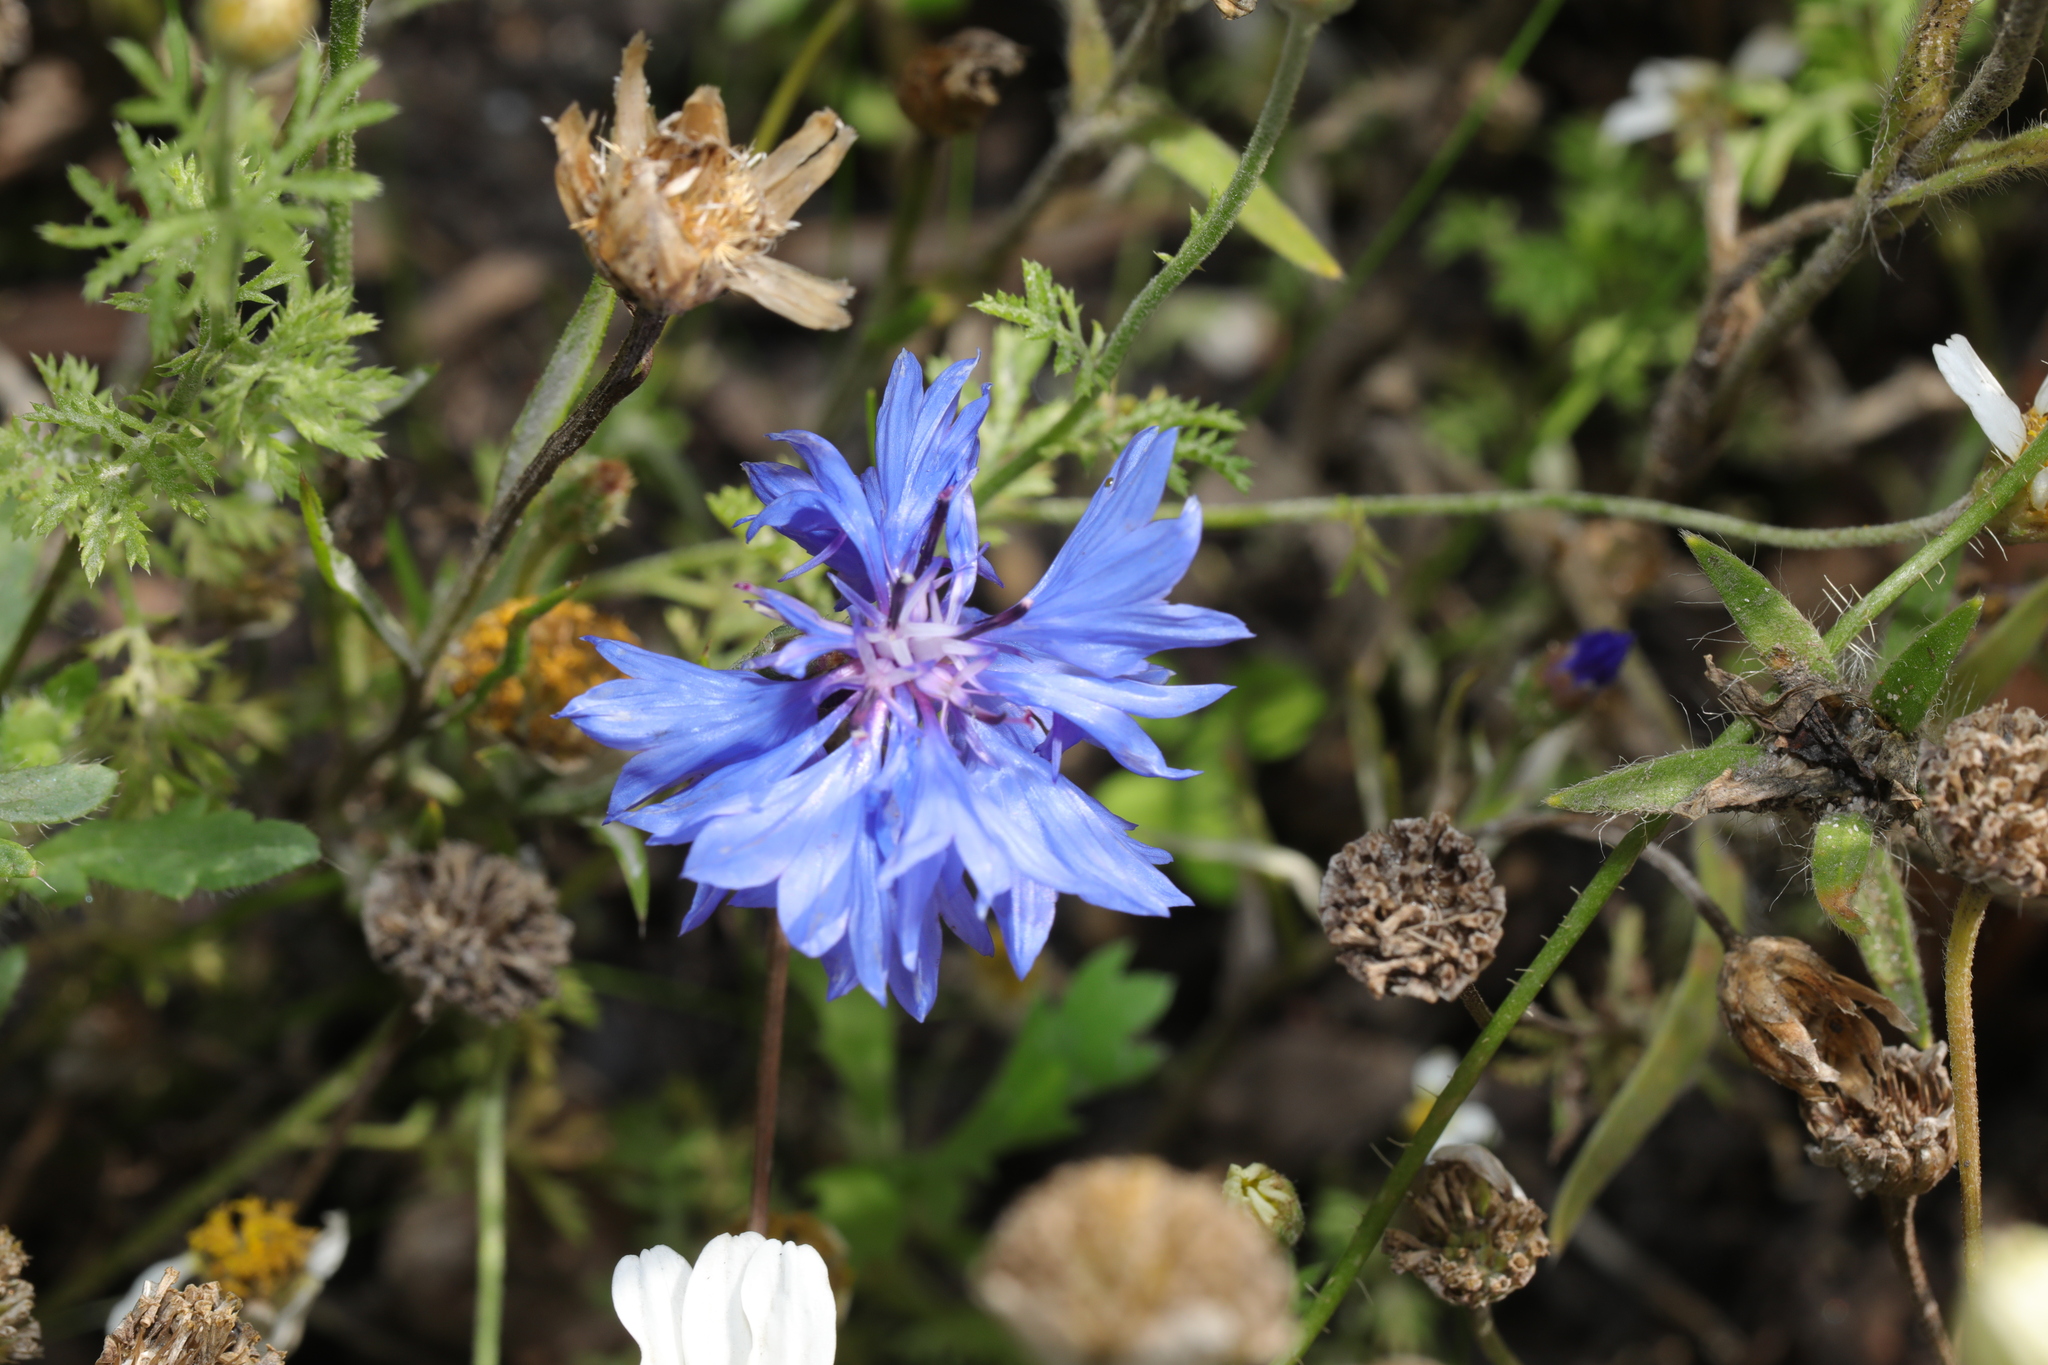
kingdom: Plantae
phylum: Tracheophyta
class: Magnoliopsida
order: Asterales
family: Asteraceae
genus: Centaurea
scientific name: Centaurea cyanus
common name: Cornflower
